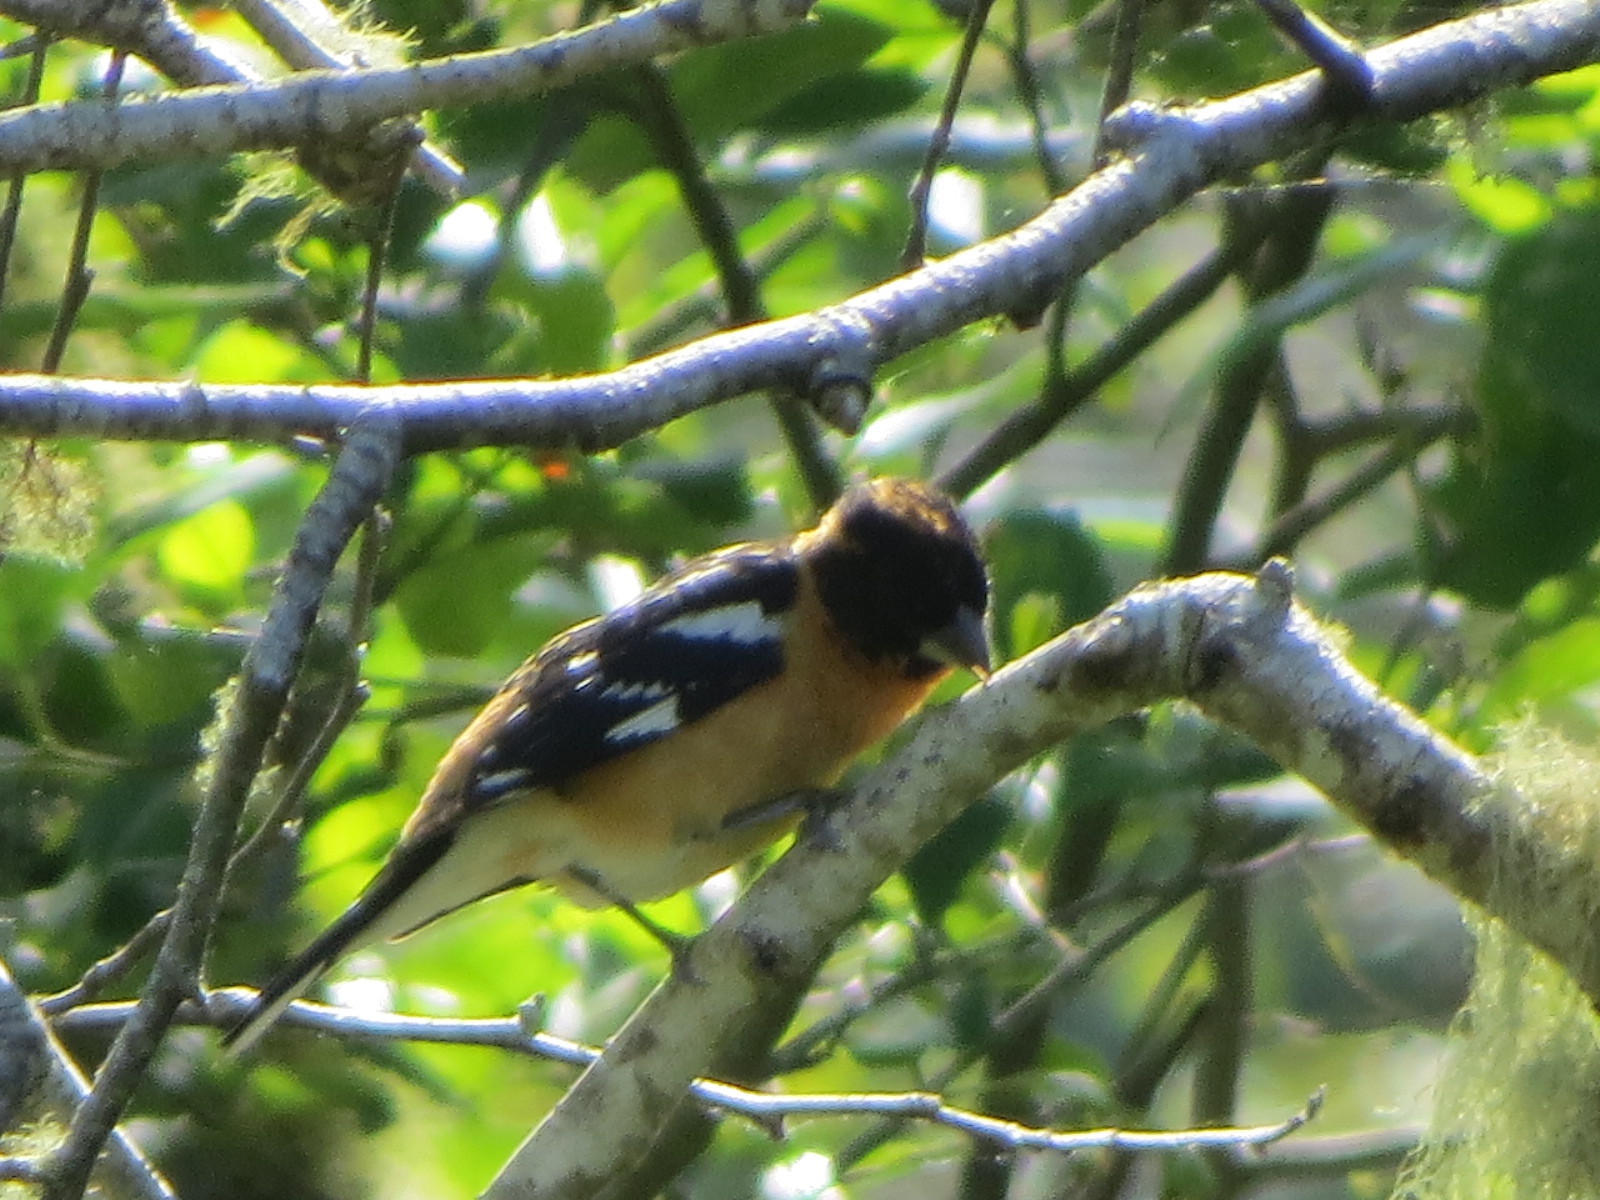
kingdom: Animalia
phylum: Chordata
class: Aves
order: Passeriformes
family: Cardinalidae
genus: Pheucticus
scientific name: Pheucticus melanocephalus
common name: Black-headed grosbeak
